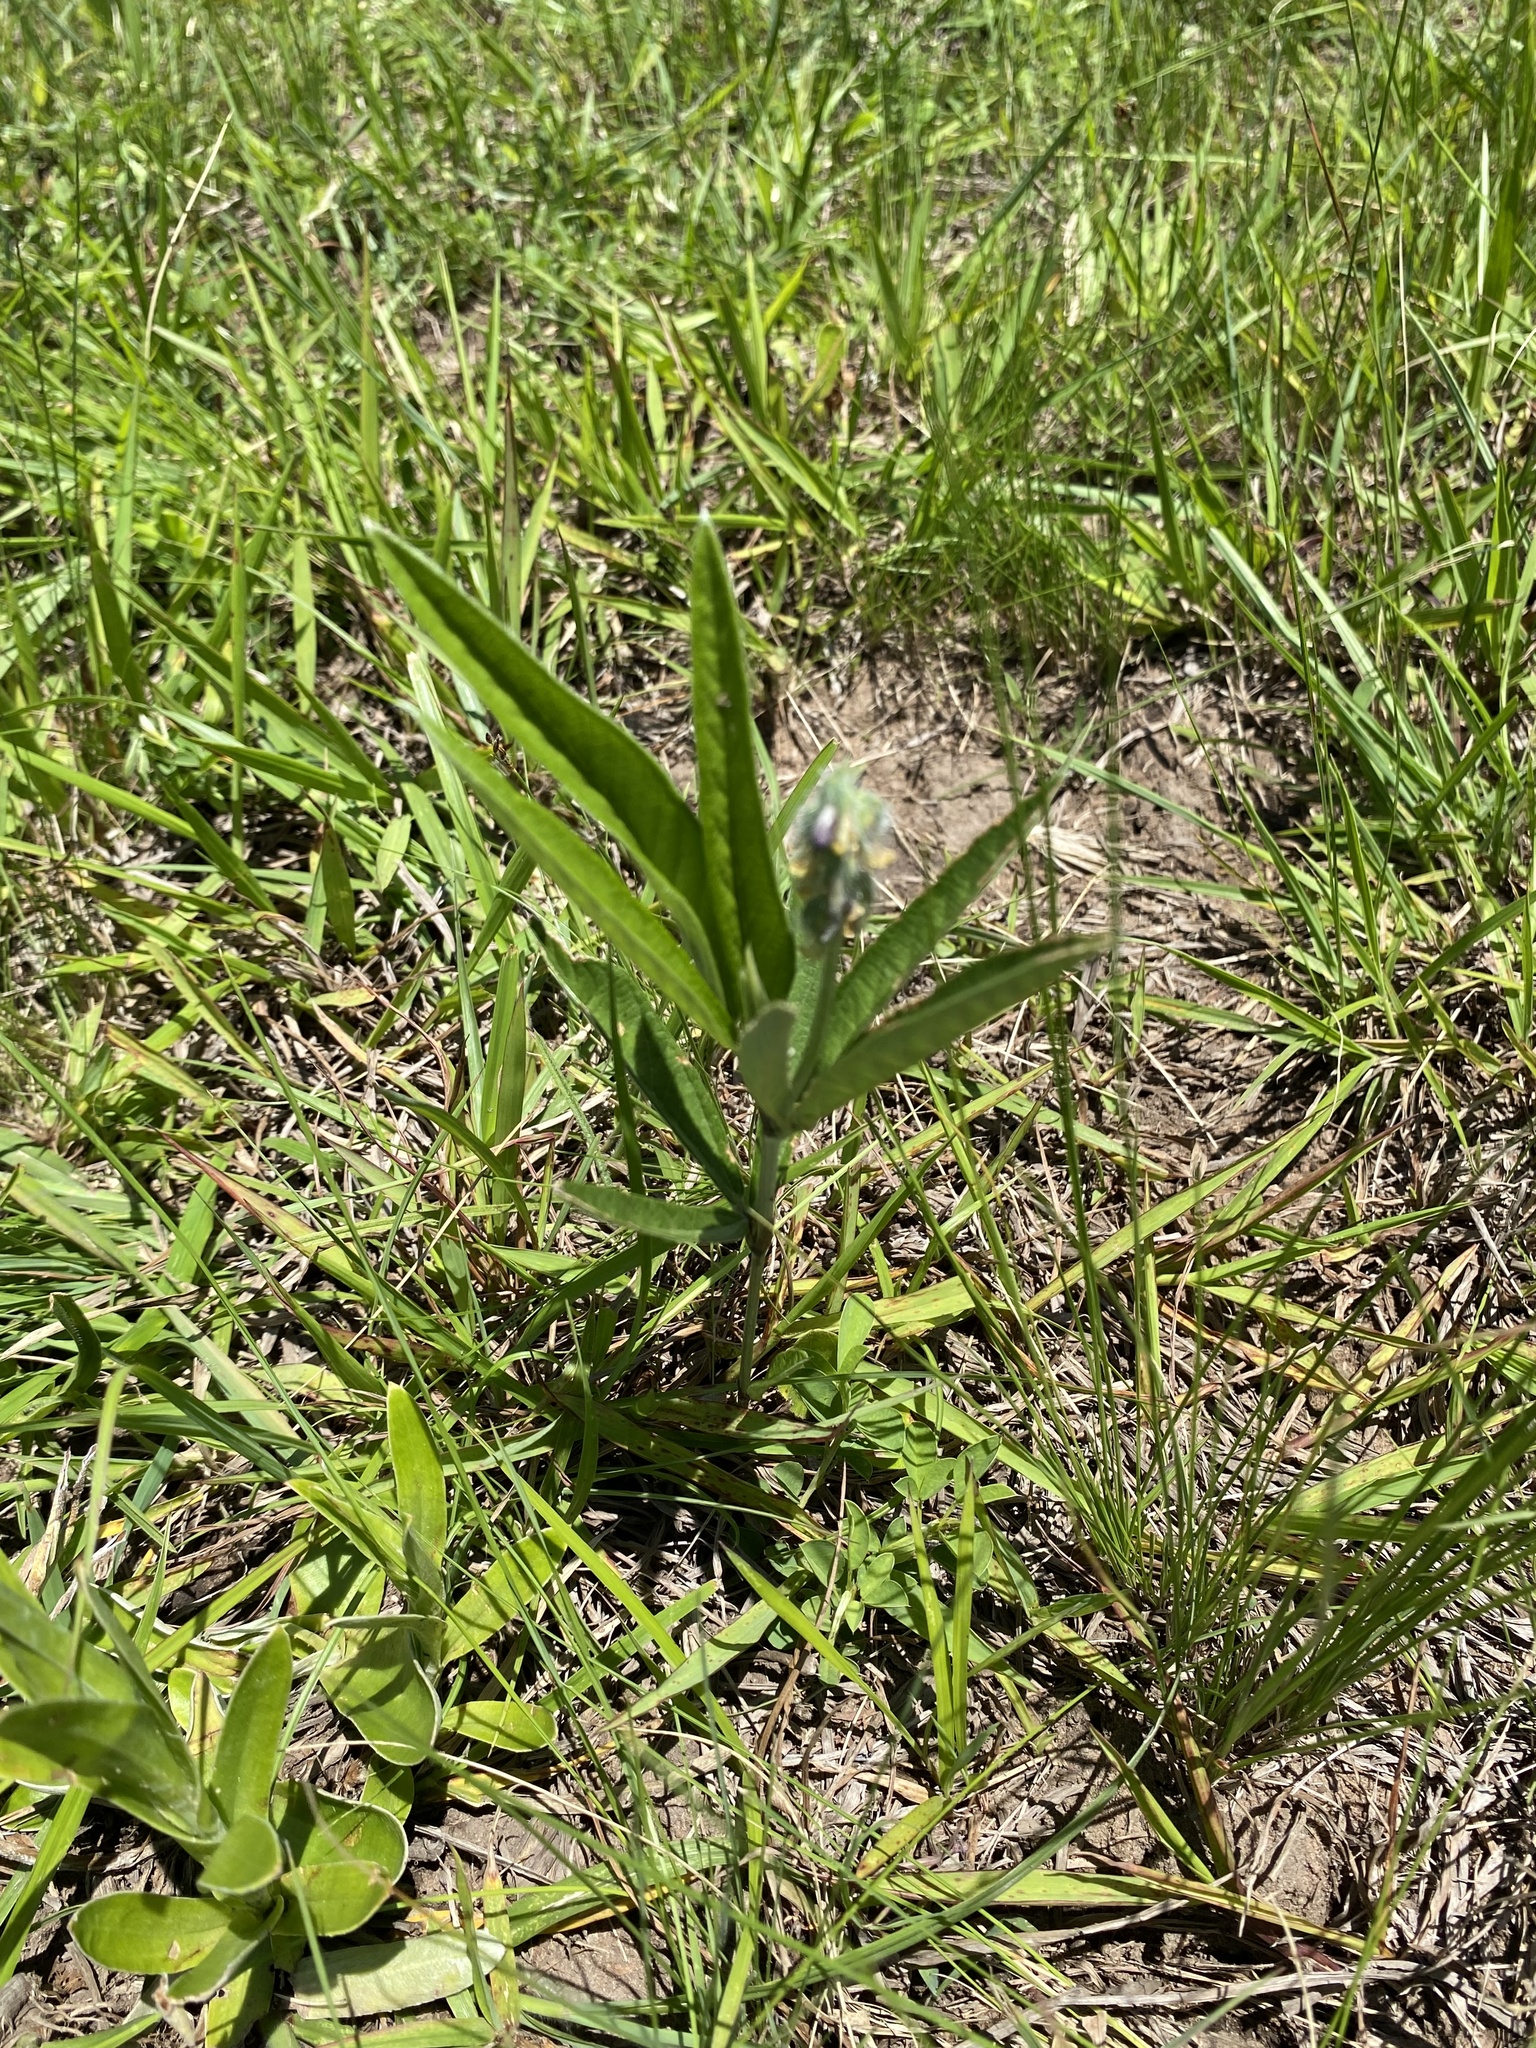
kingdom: Plantae
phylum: Tracheophyta
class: Magnoliopsida
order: Fabales
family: Fabaceae
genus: Eriosema
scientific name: Eriosema salignum
